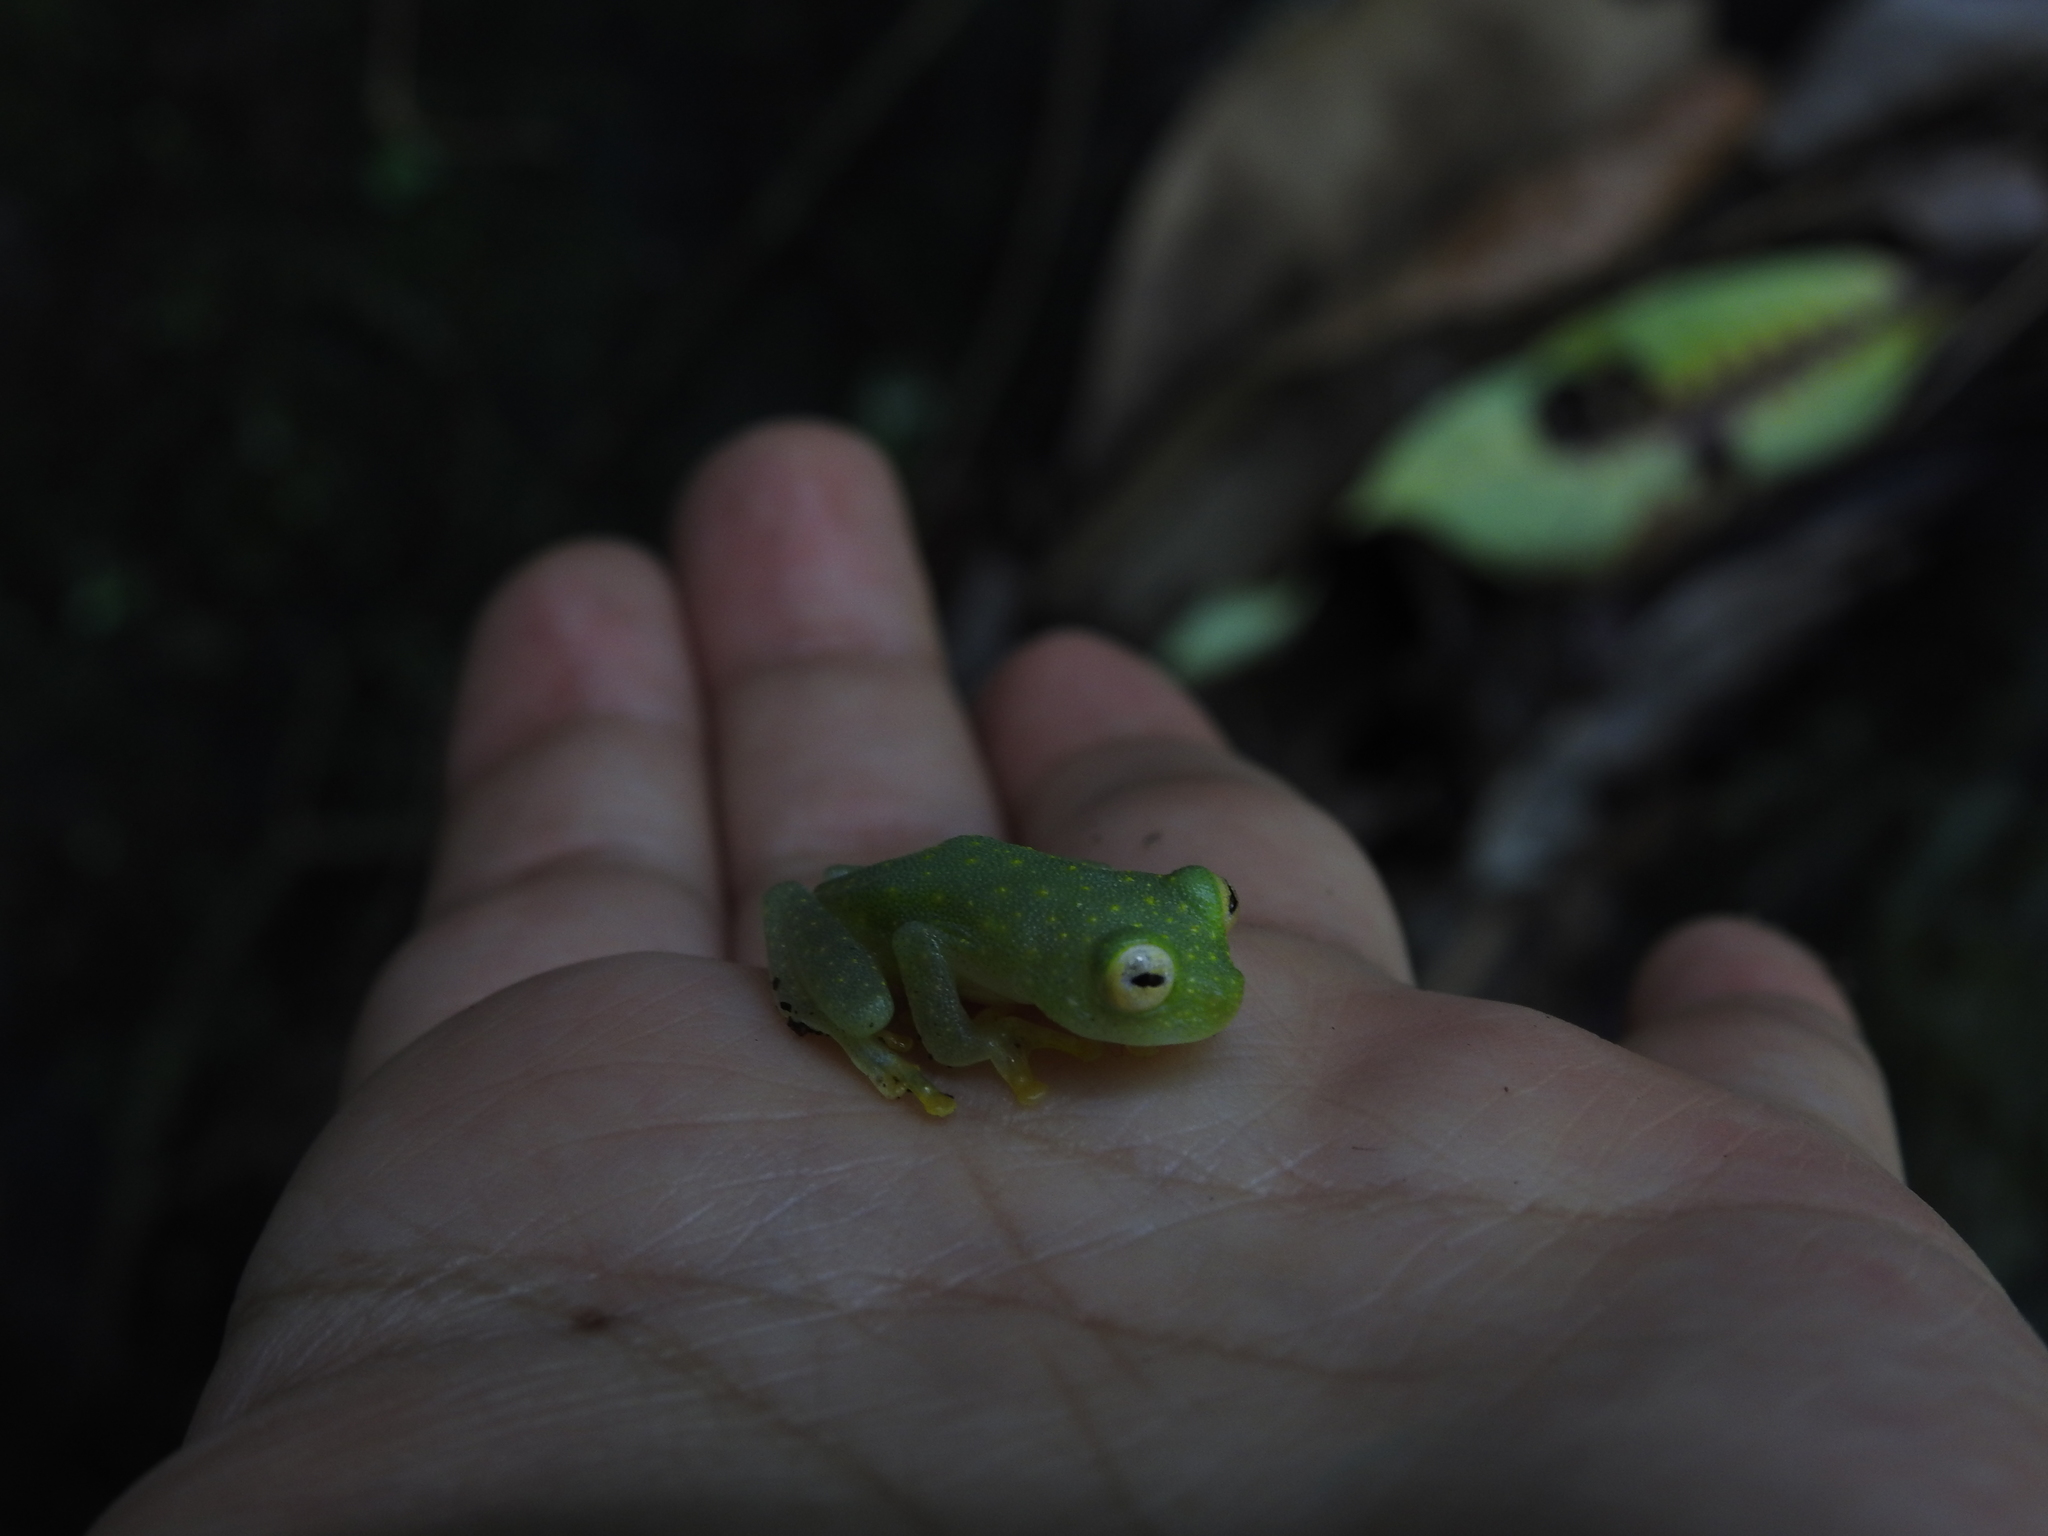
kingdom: Animalia
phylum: Chordata
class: Amphibia
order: Anura
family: Centrolenidae
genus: Hyalinobatrachium
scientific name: Hyalinobatrachium tatayoi
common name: Tatayo’s glass frog
